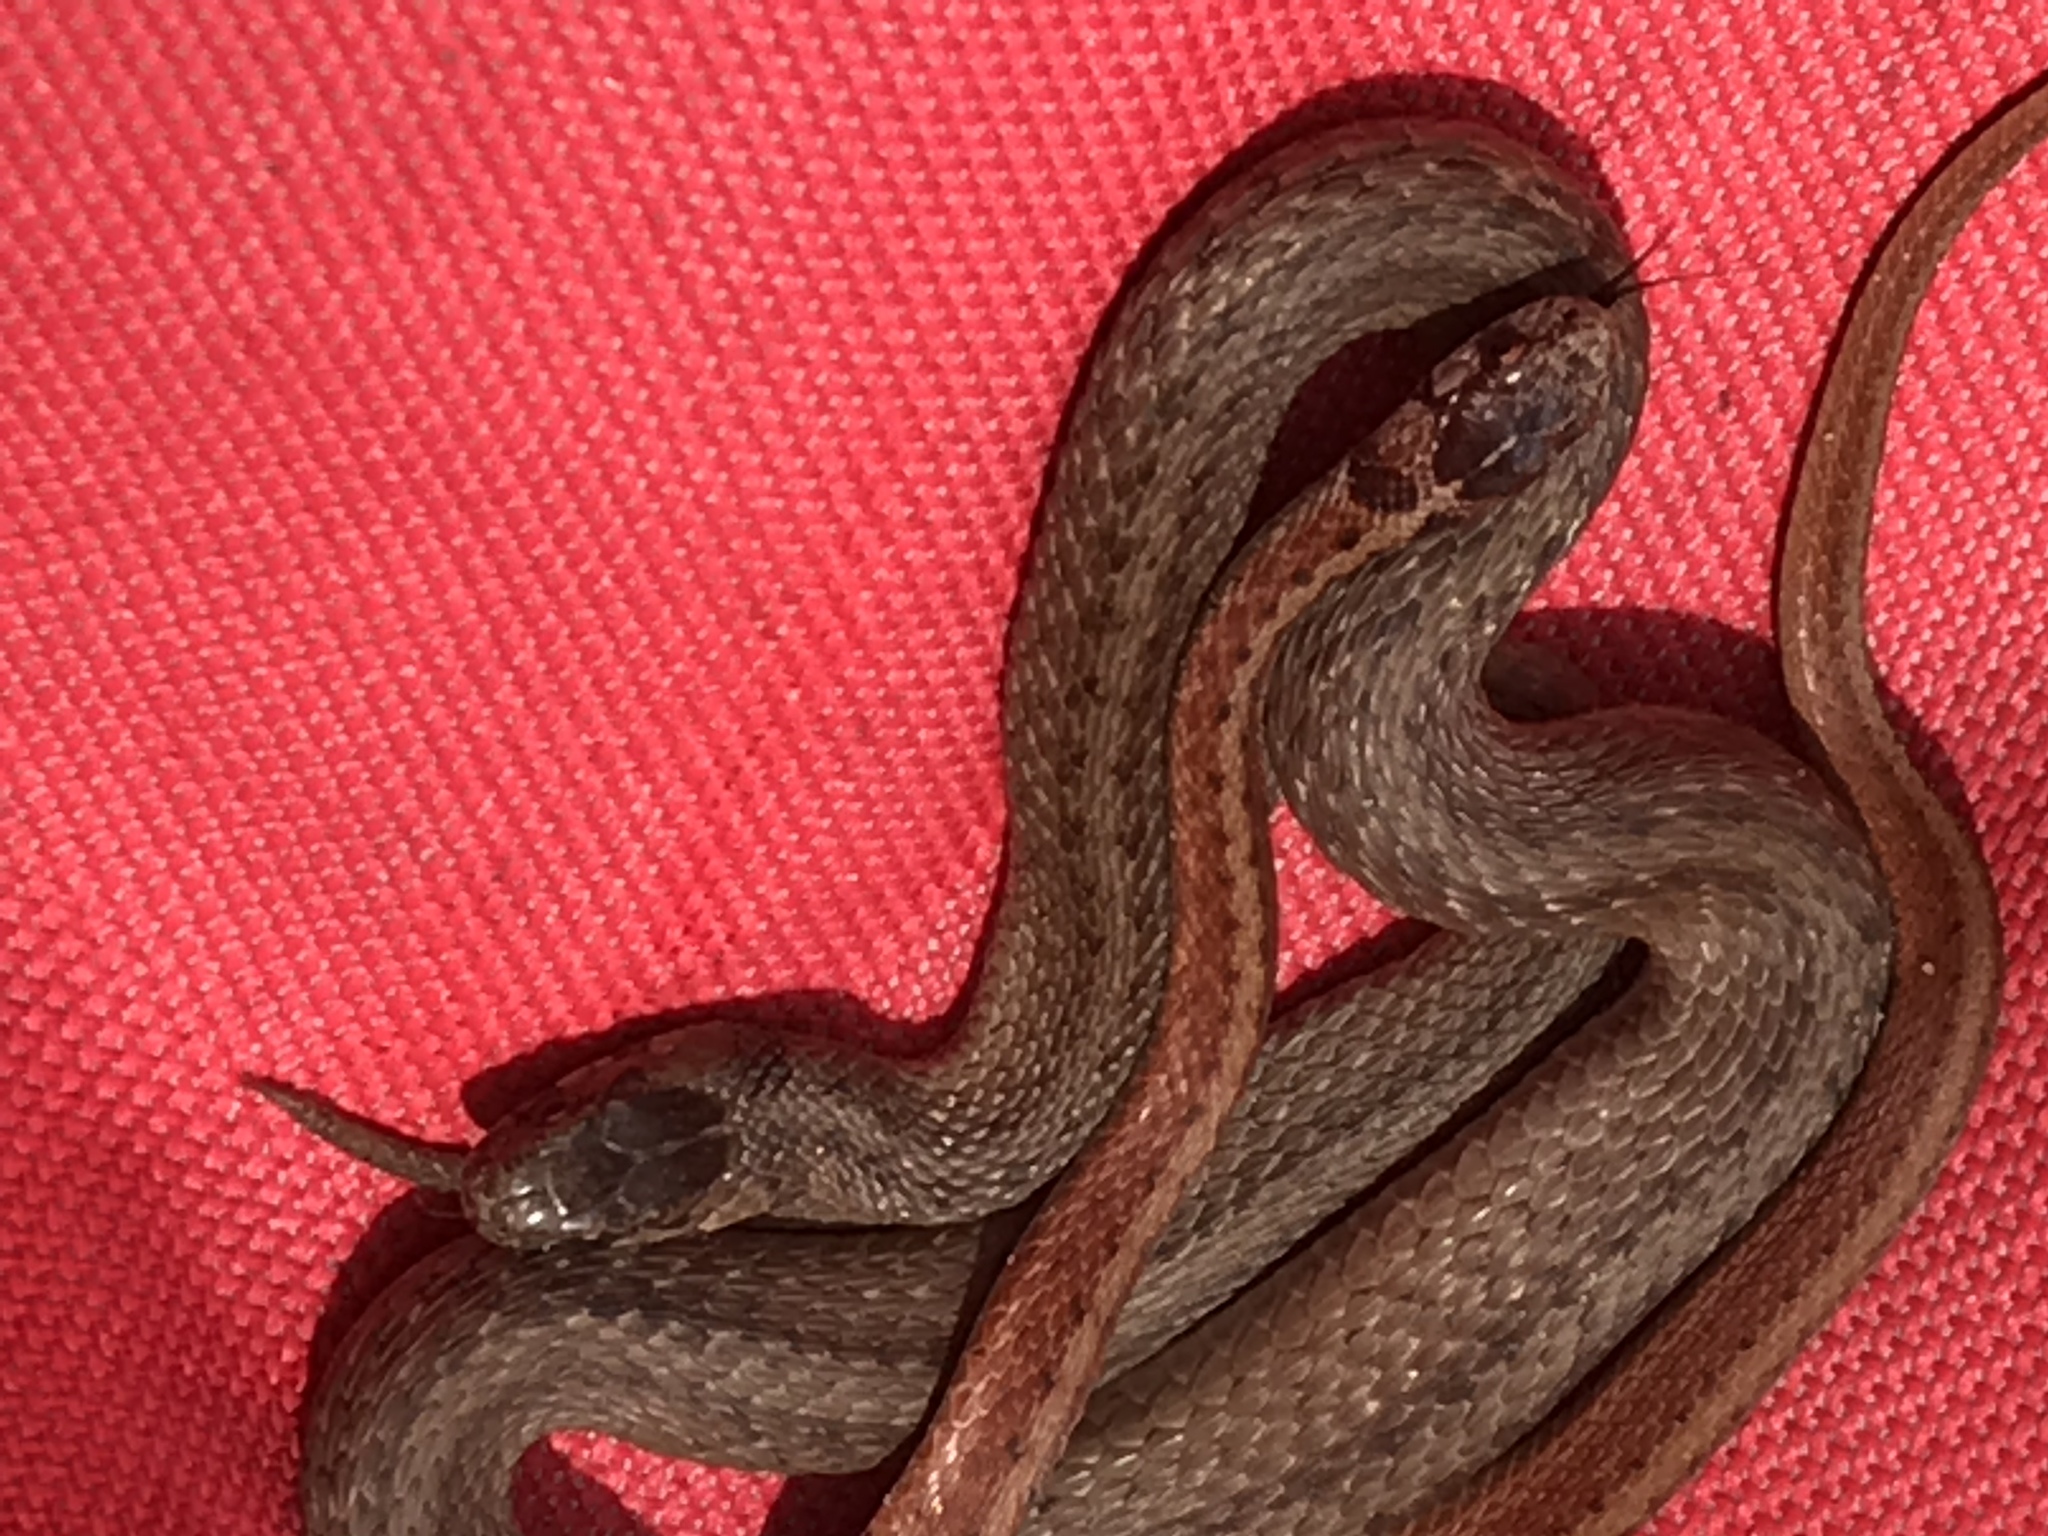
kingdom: Animalia
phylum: Chordata
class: Squamata
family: Colubridae
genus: Storeria
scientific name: Storeria dekayi
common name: (dekay’s) brown snake
